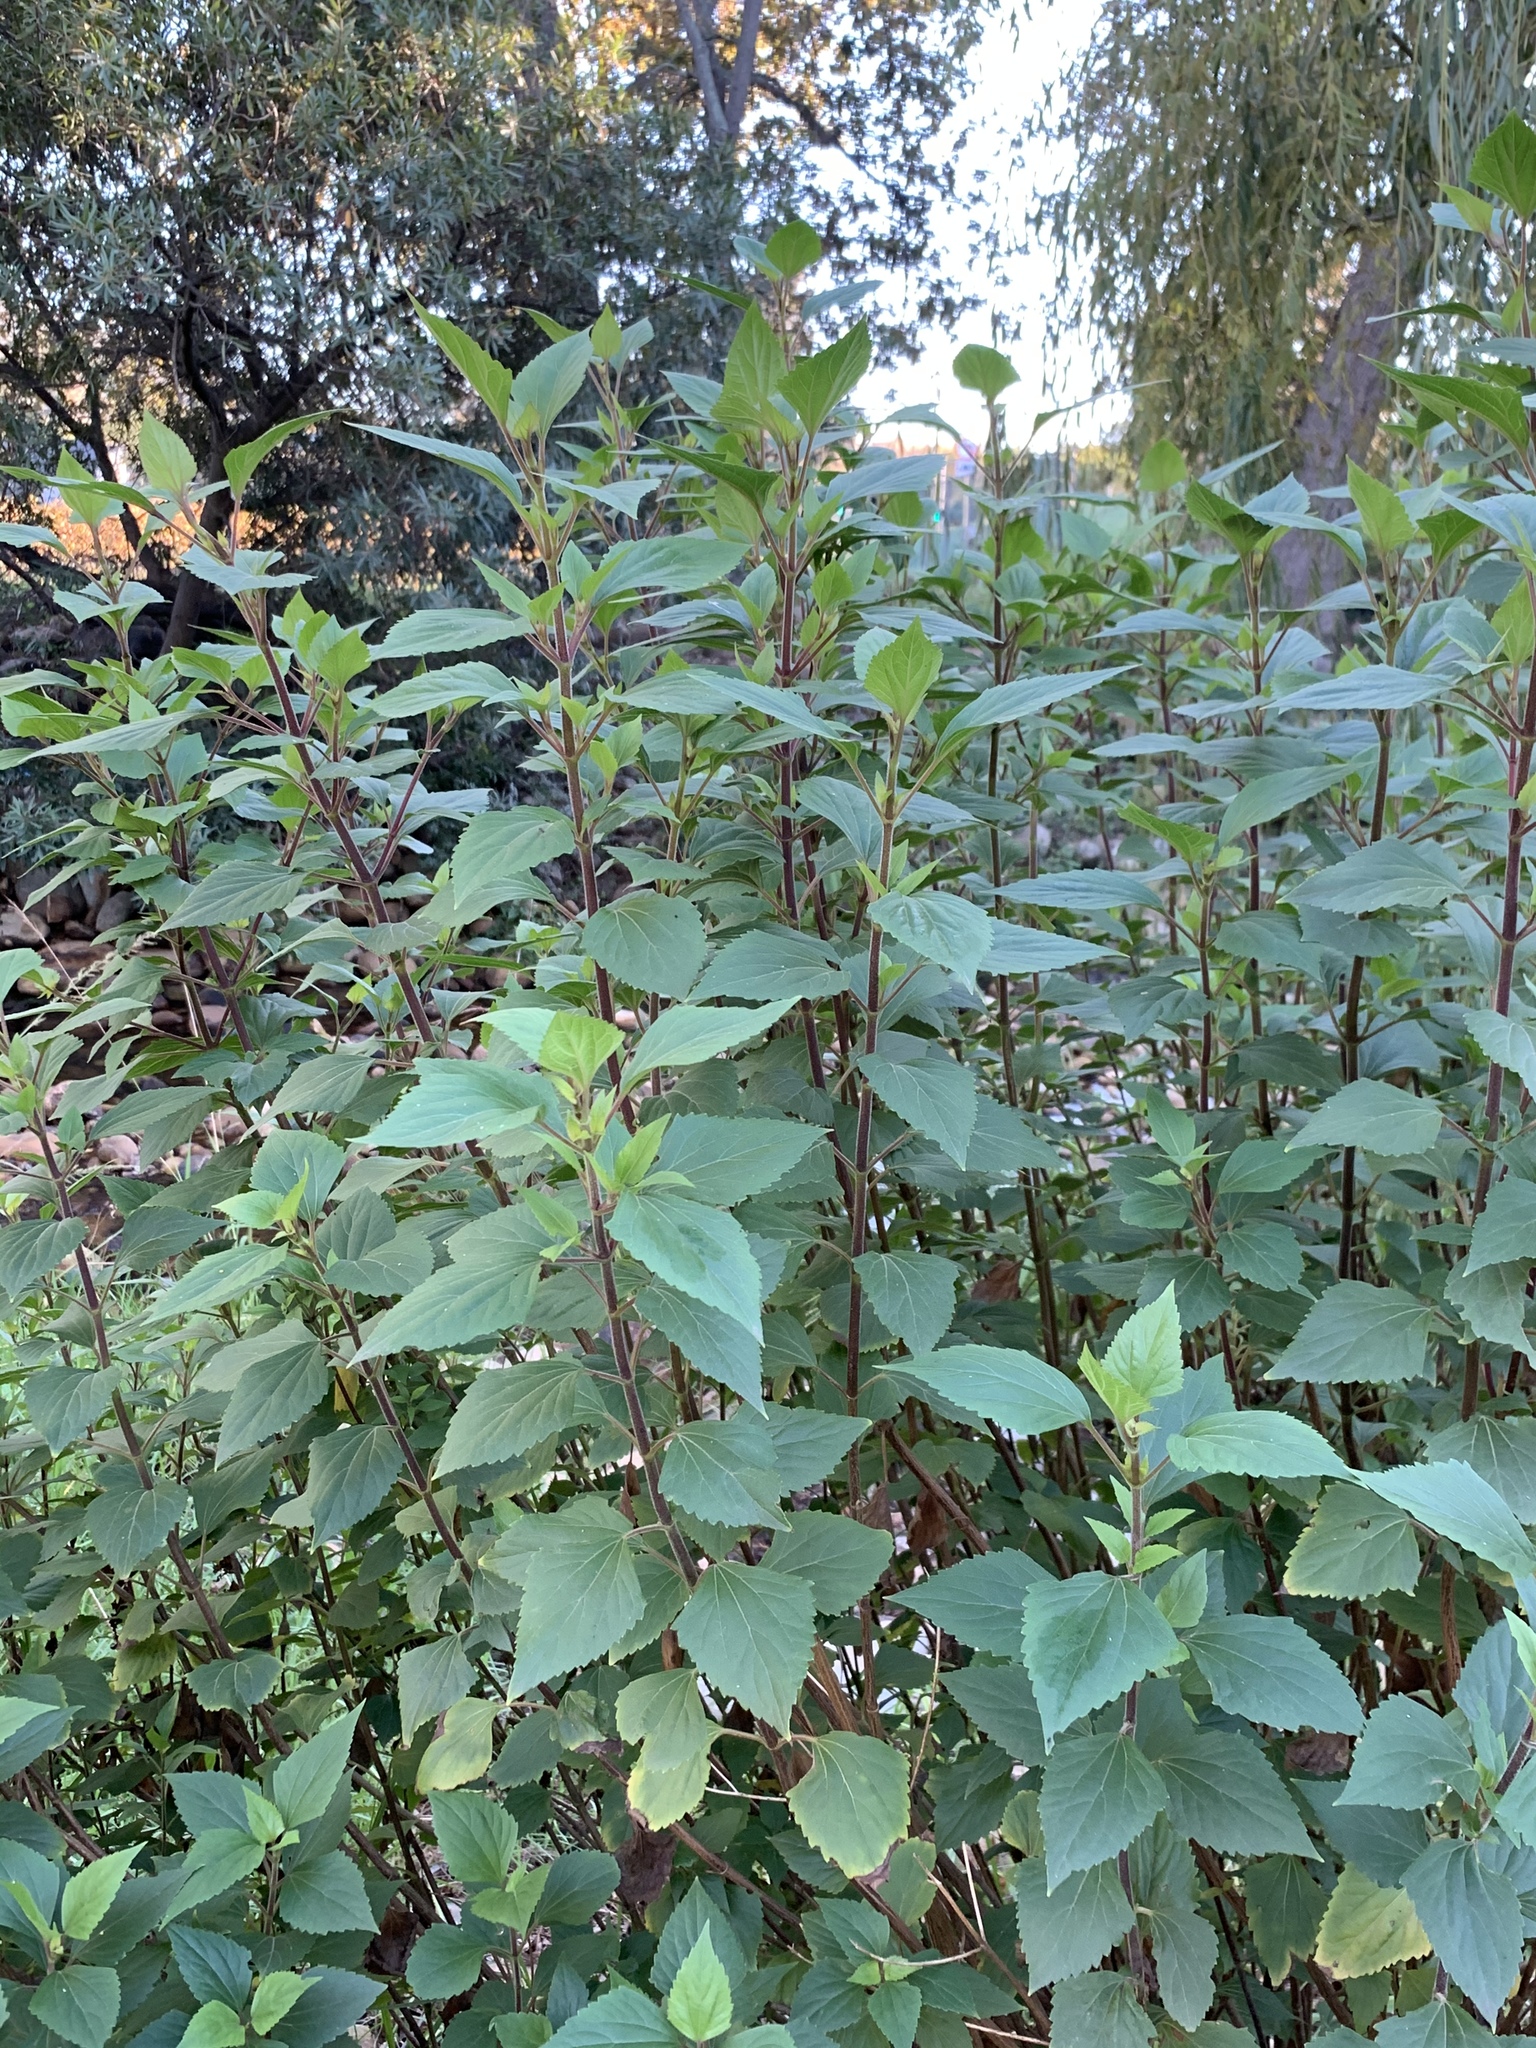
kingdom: Plantae
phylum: Tracheophyta
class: Magnoliopsida
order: Asterales
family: Asteraceae
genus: Ageratina
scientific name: Ageratina adenophora
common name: Sticky snakeroot
